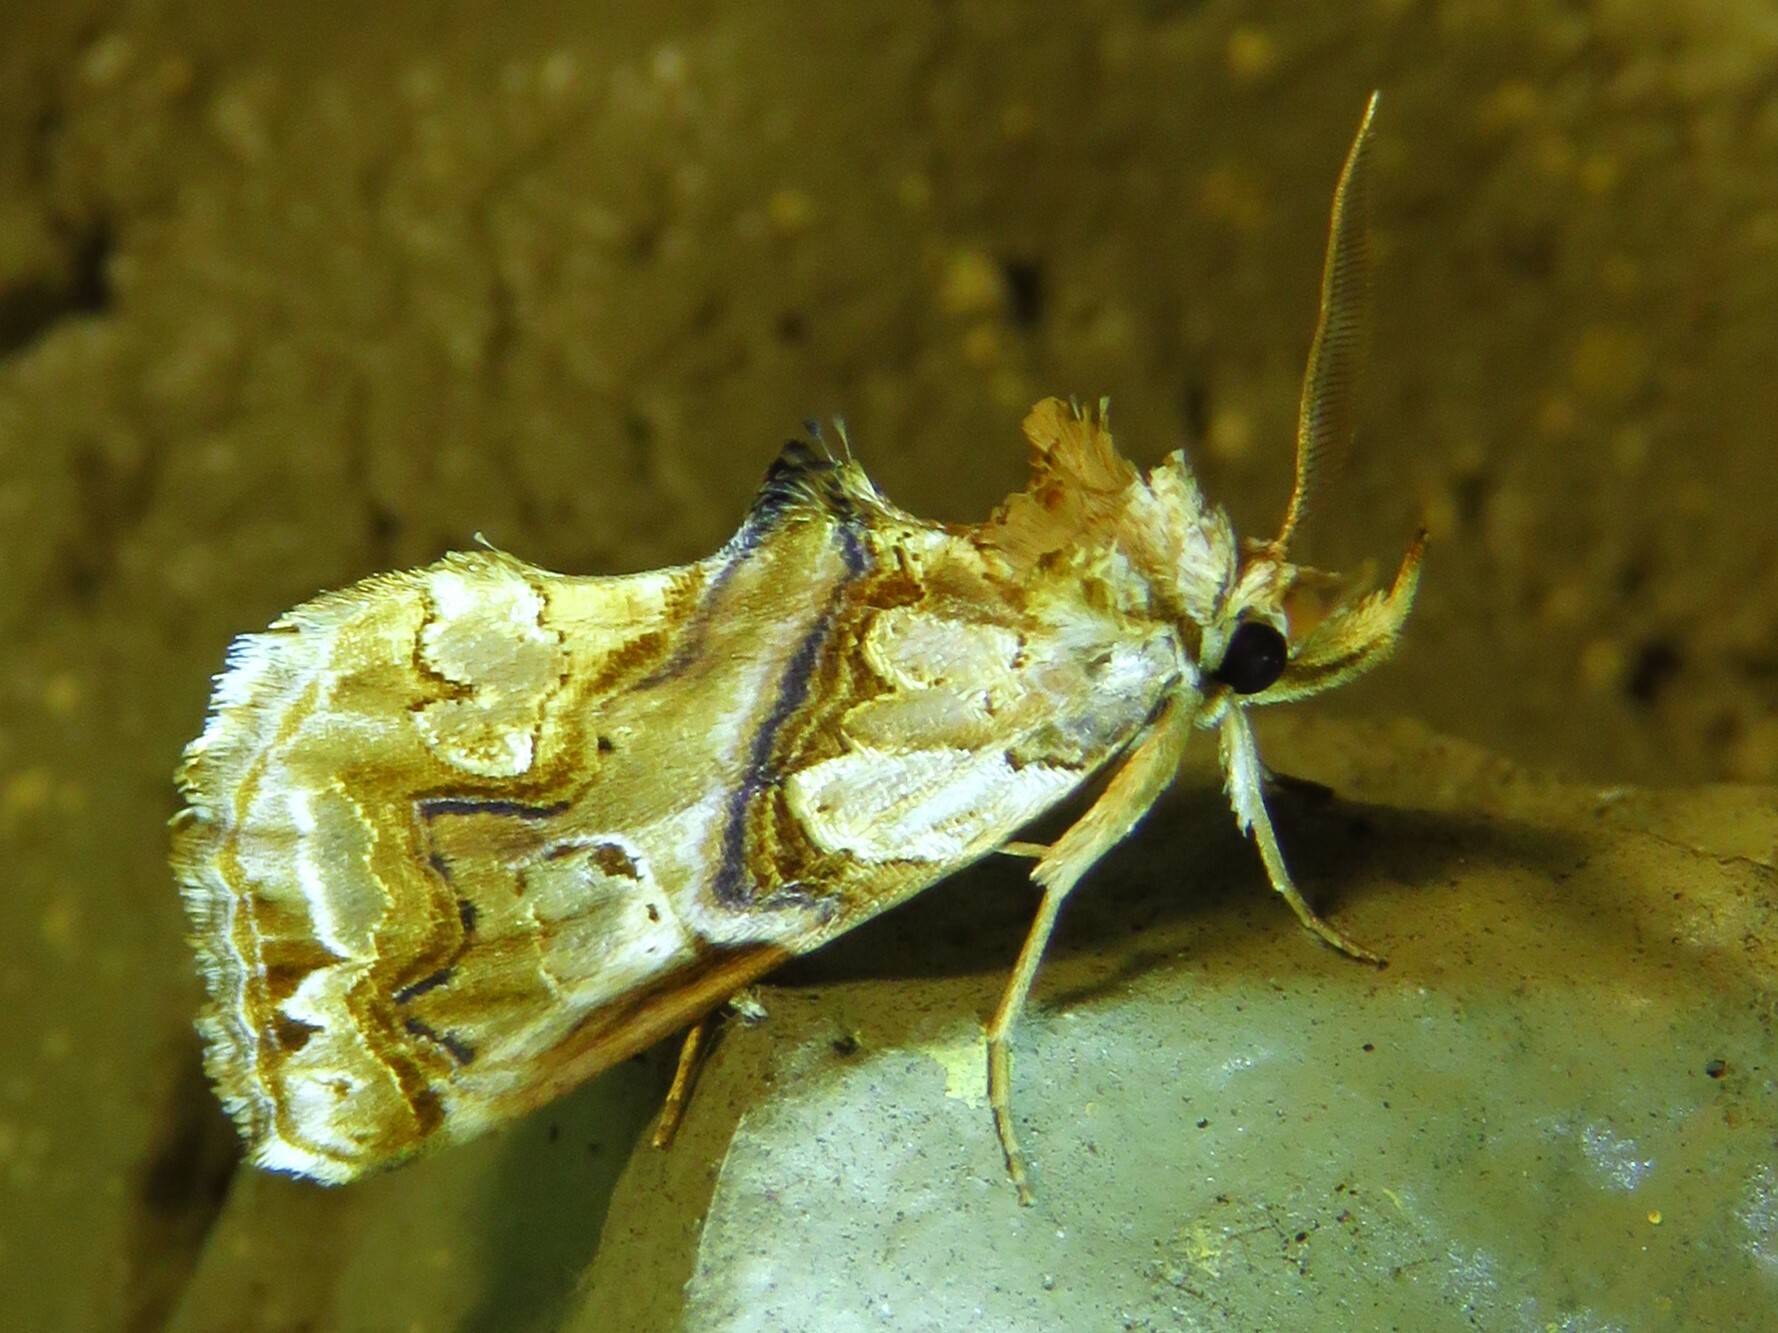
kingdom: Animalia
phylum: Arthropoda
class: Insecta
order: Lepidoptera
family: Erebidae
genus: Plusiodonta
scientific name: Plusiodonta compressipalpis
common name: Moonseed moth
